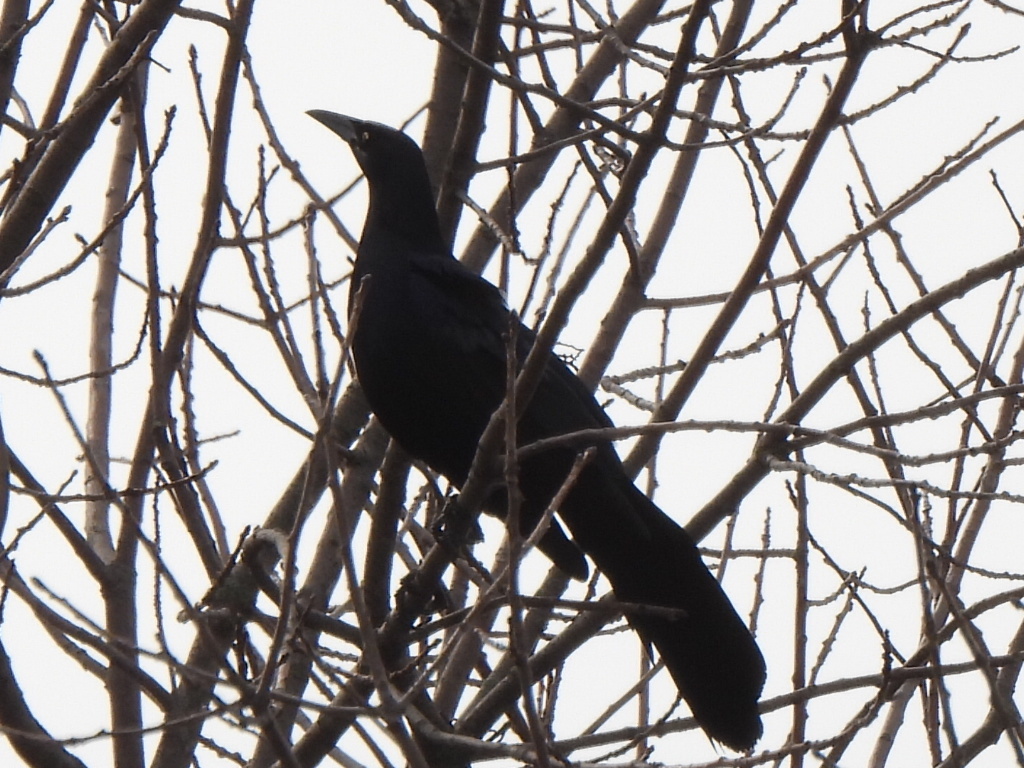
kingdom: Animalia
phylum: Chordata
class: Aves
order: Passeriformes
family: Icteridae
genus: Quiscalus
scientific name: Quiscalus mexicanus
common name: Great-tailed grackle
